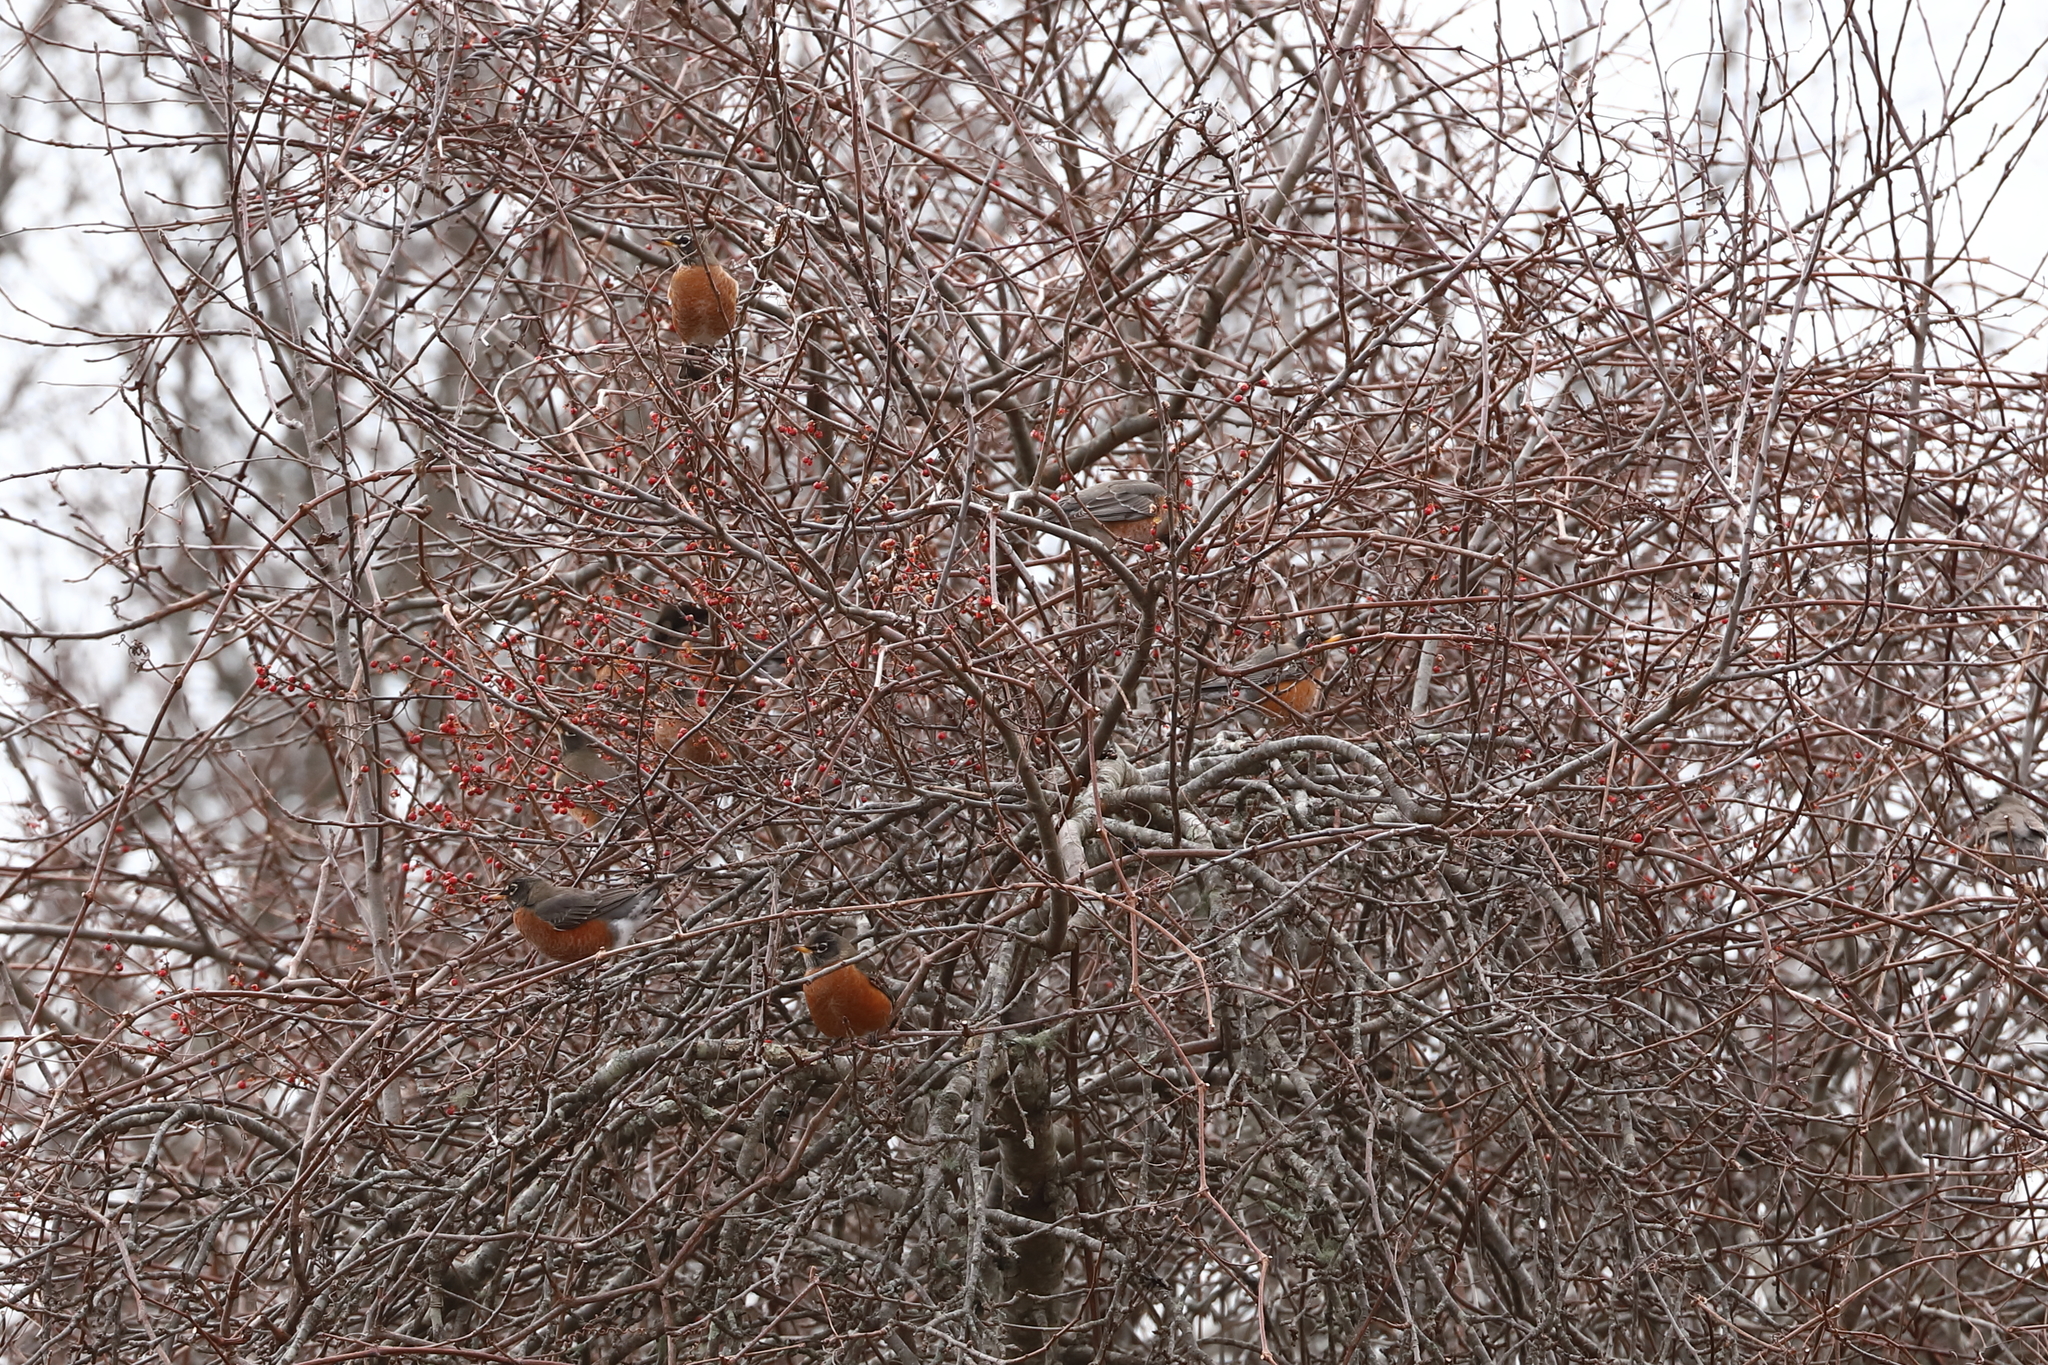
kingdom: Animalia
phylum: Chordata
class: Aves
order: Passeriformes
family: Turdidae
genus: Turdus
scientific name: Turdus migratorius
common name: American robin
